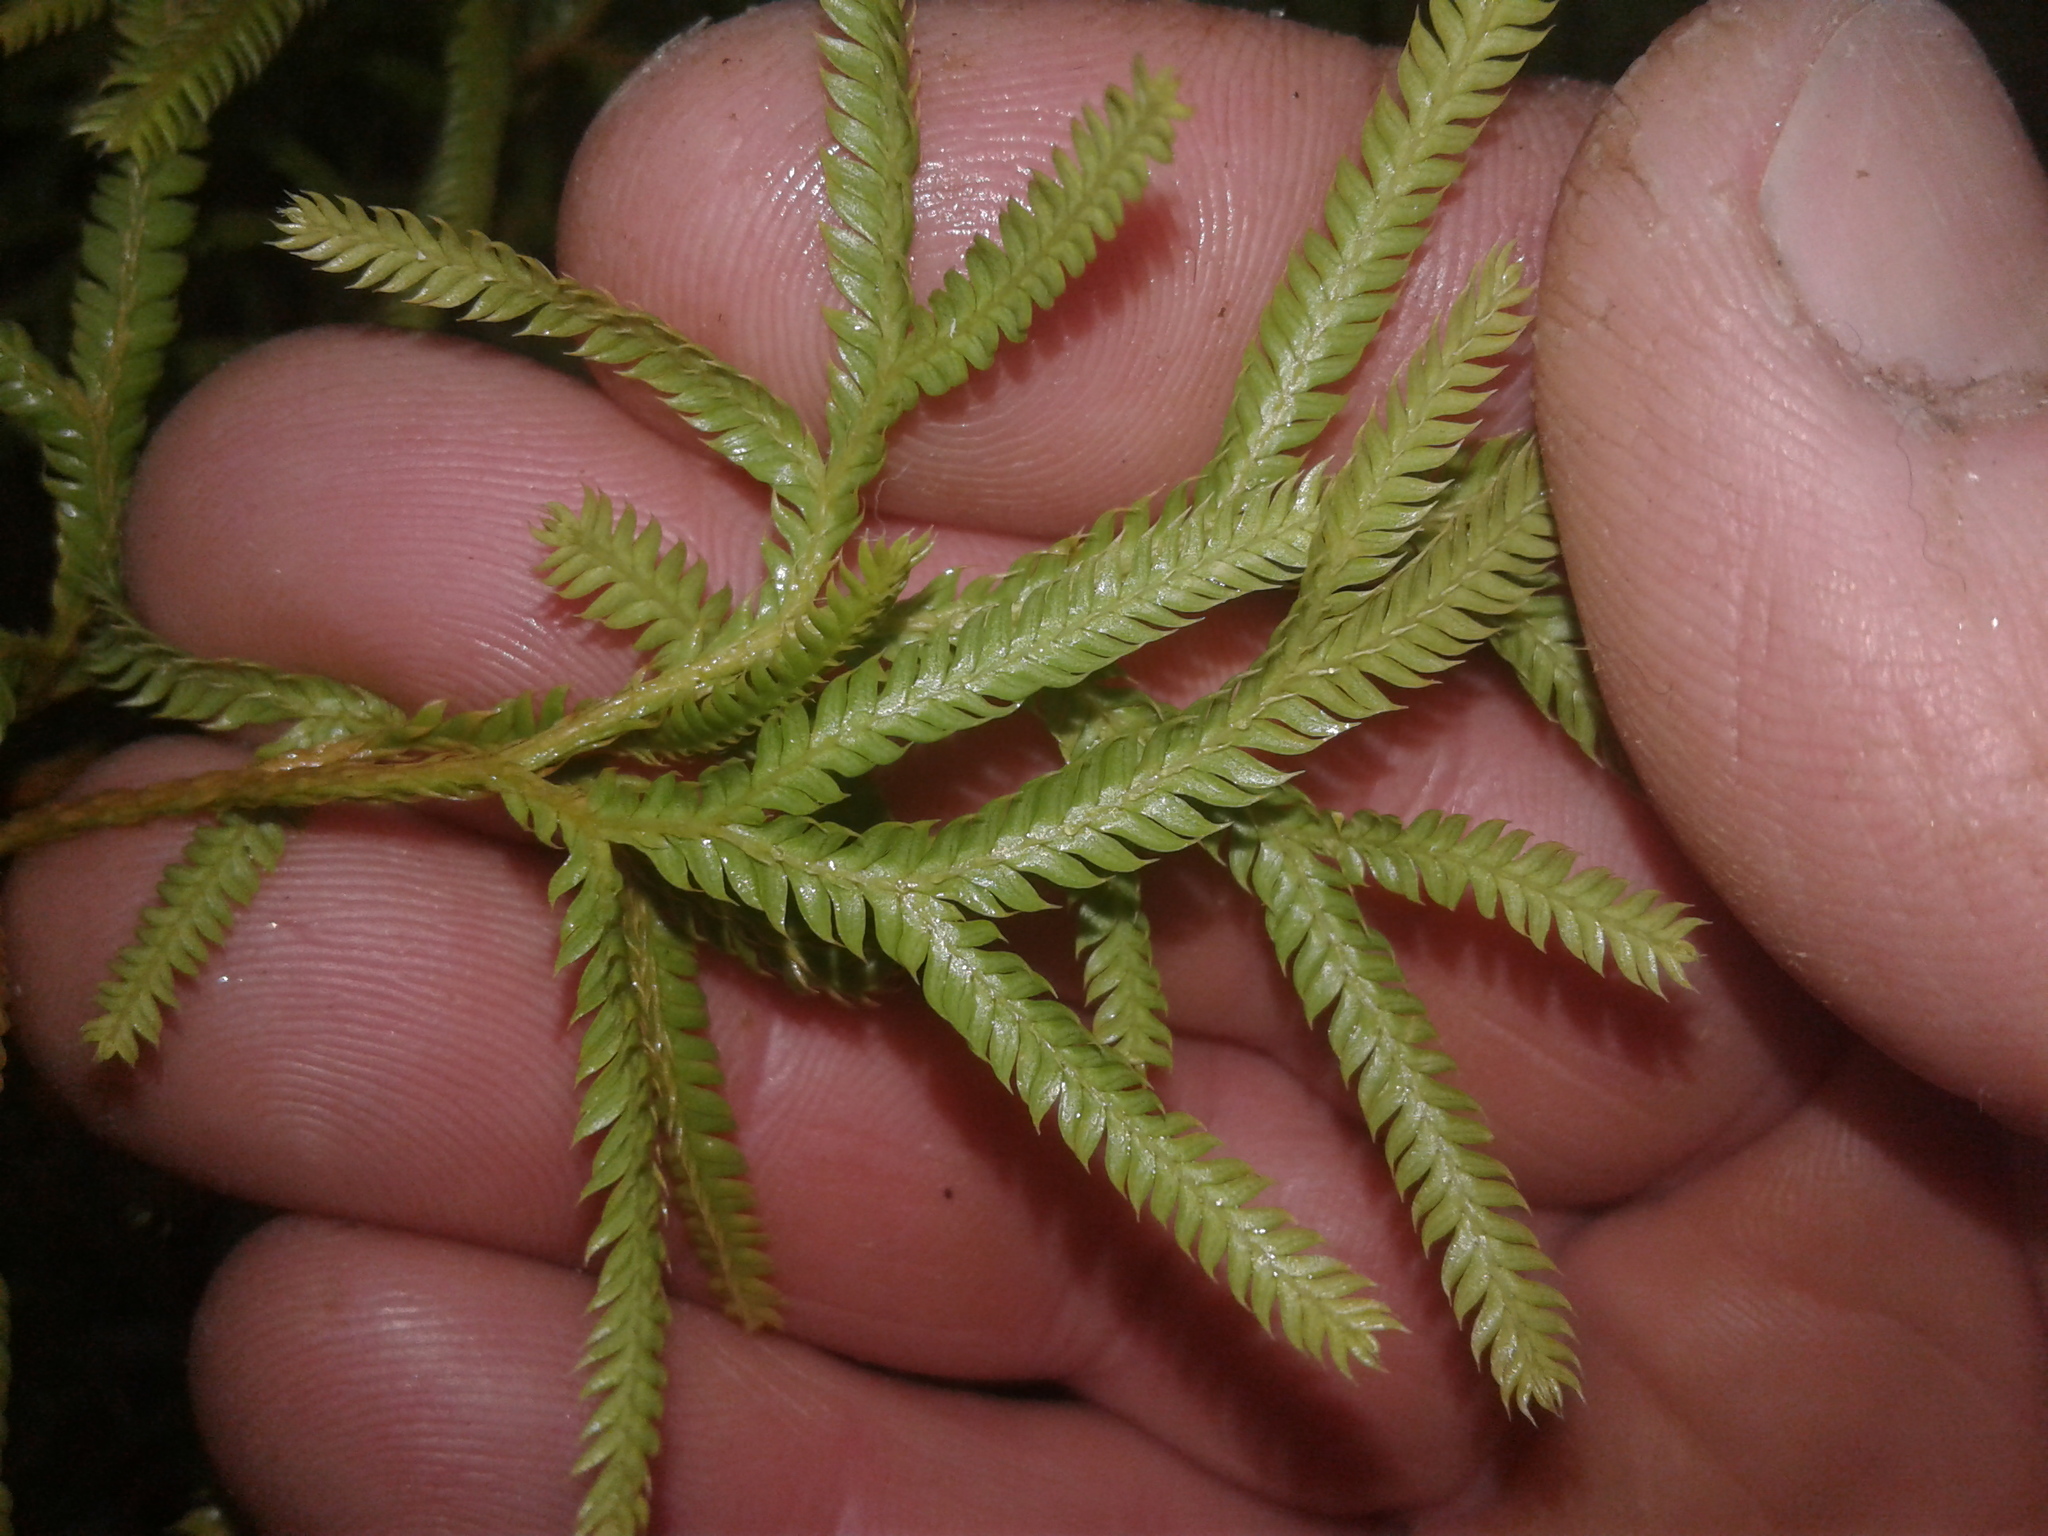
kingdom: Plantae
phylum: Tracheophyta
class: Lycopodiopsida
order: Lycopodiales
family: Lycopodiaceae
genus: Lycopodium
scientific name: Lycopodium volubile
